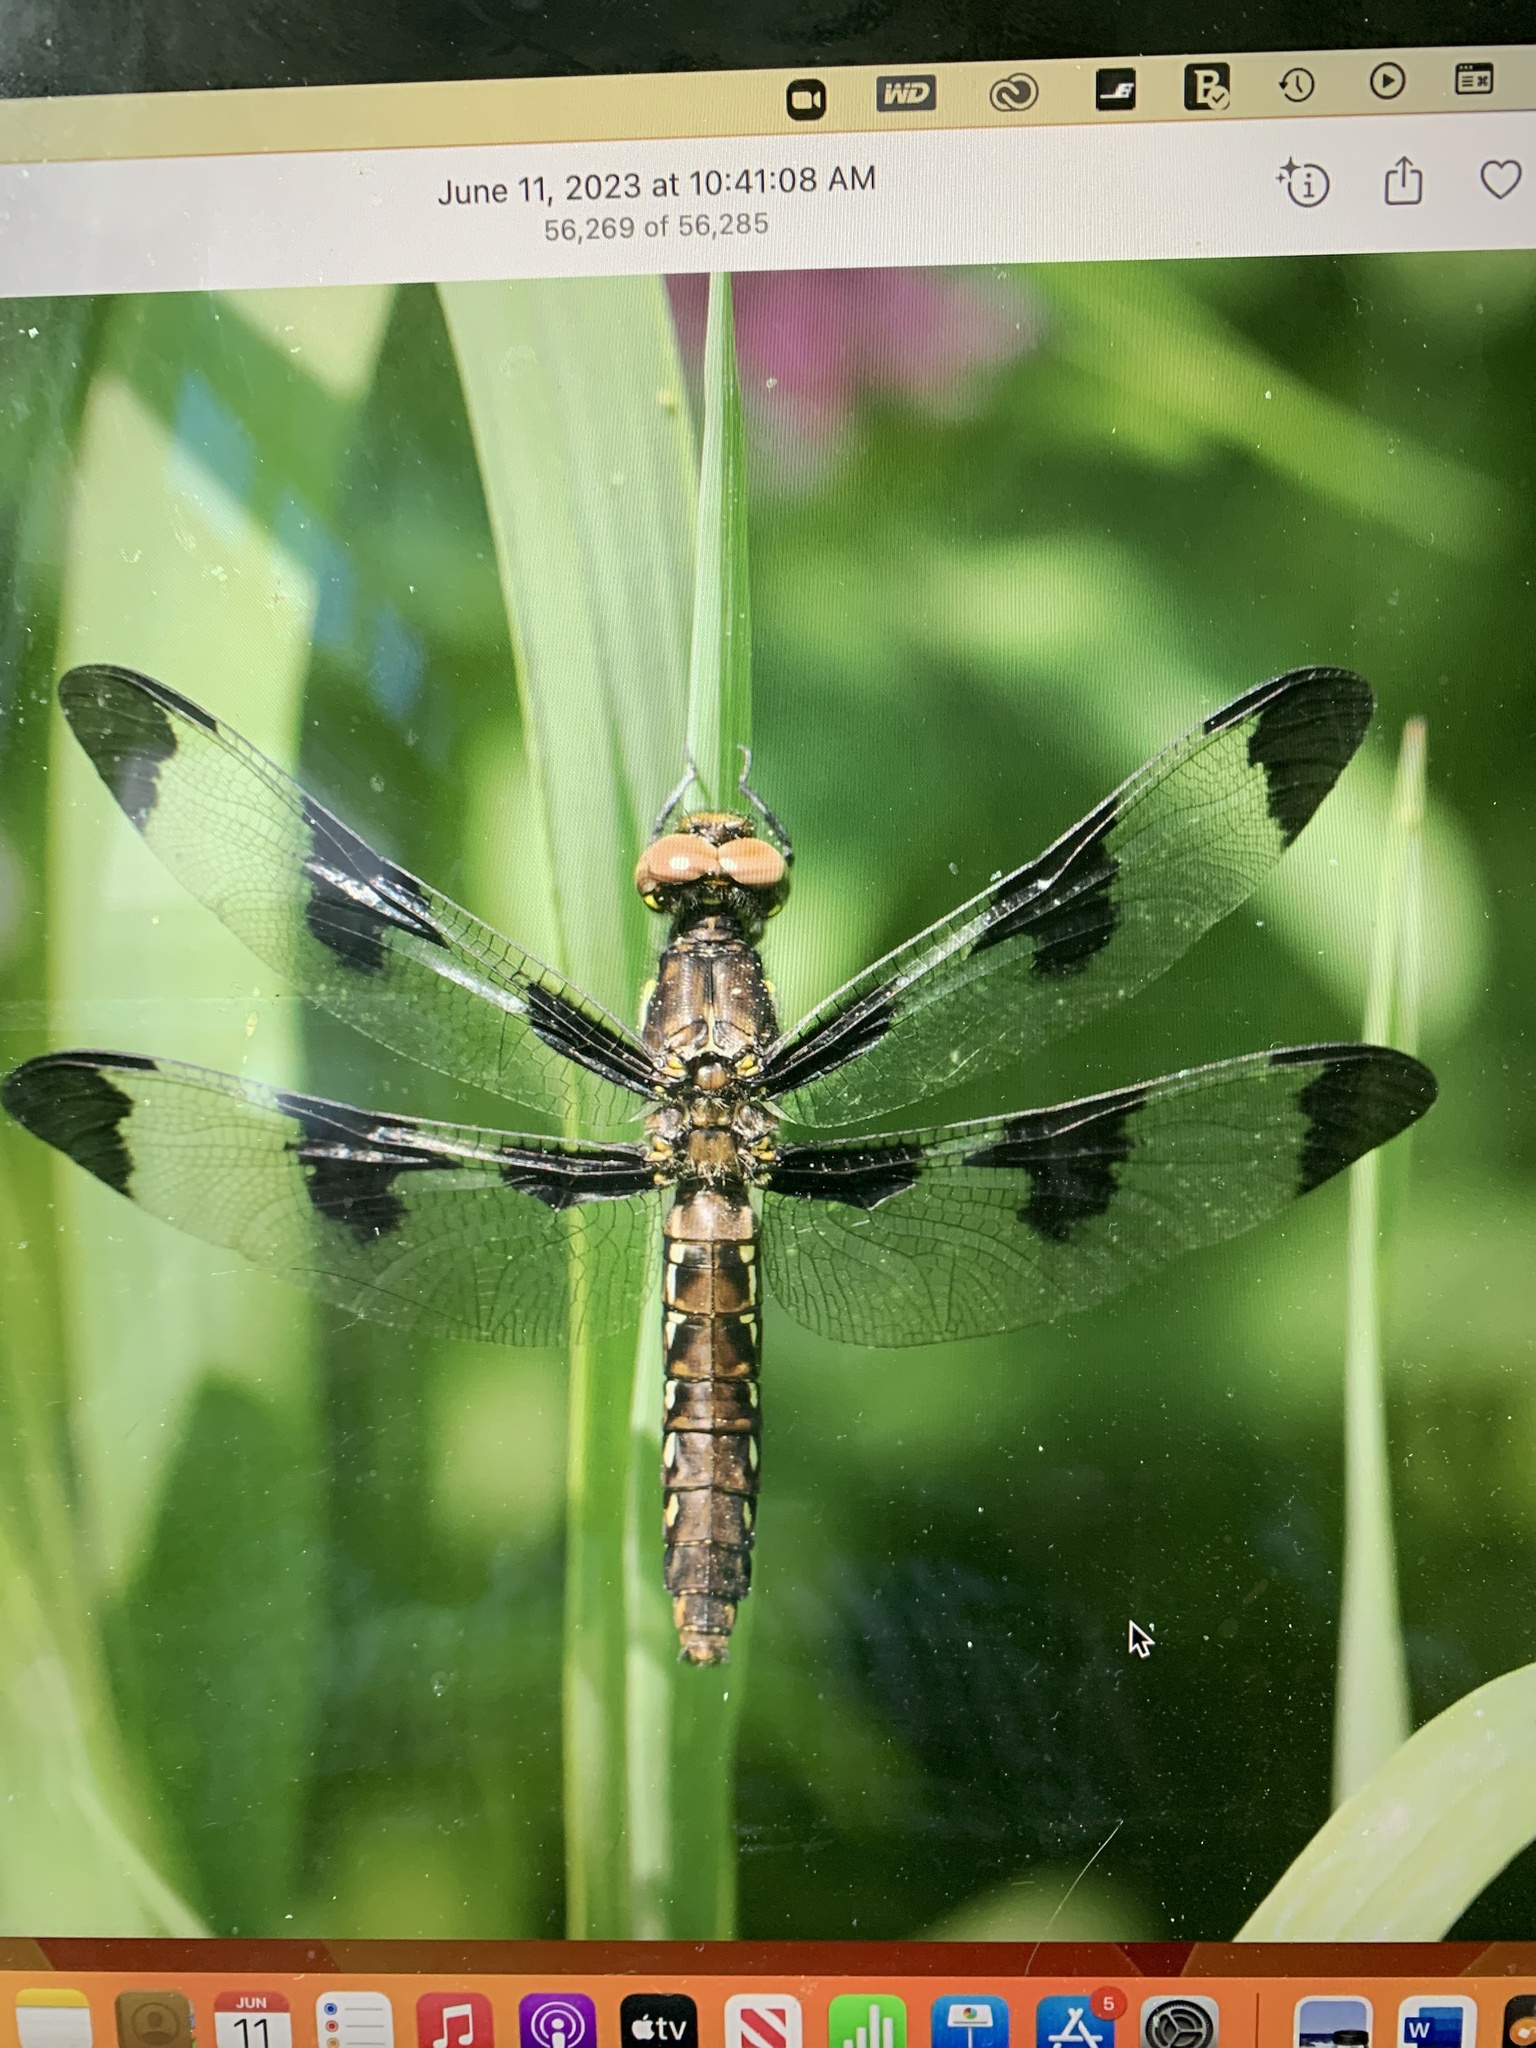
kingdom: Animalia
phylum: Arthropoda
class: Insecta
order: Odonata
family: Libellulidae
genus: Plathemis
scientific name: Plathemis lydia
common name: Common whitetail
